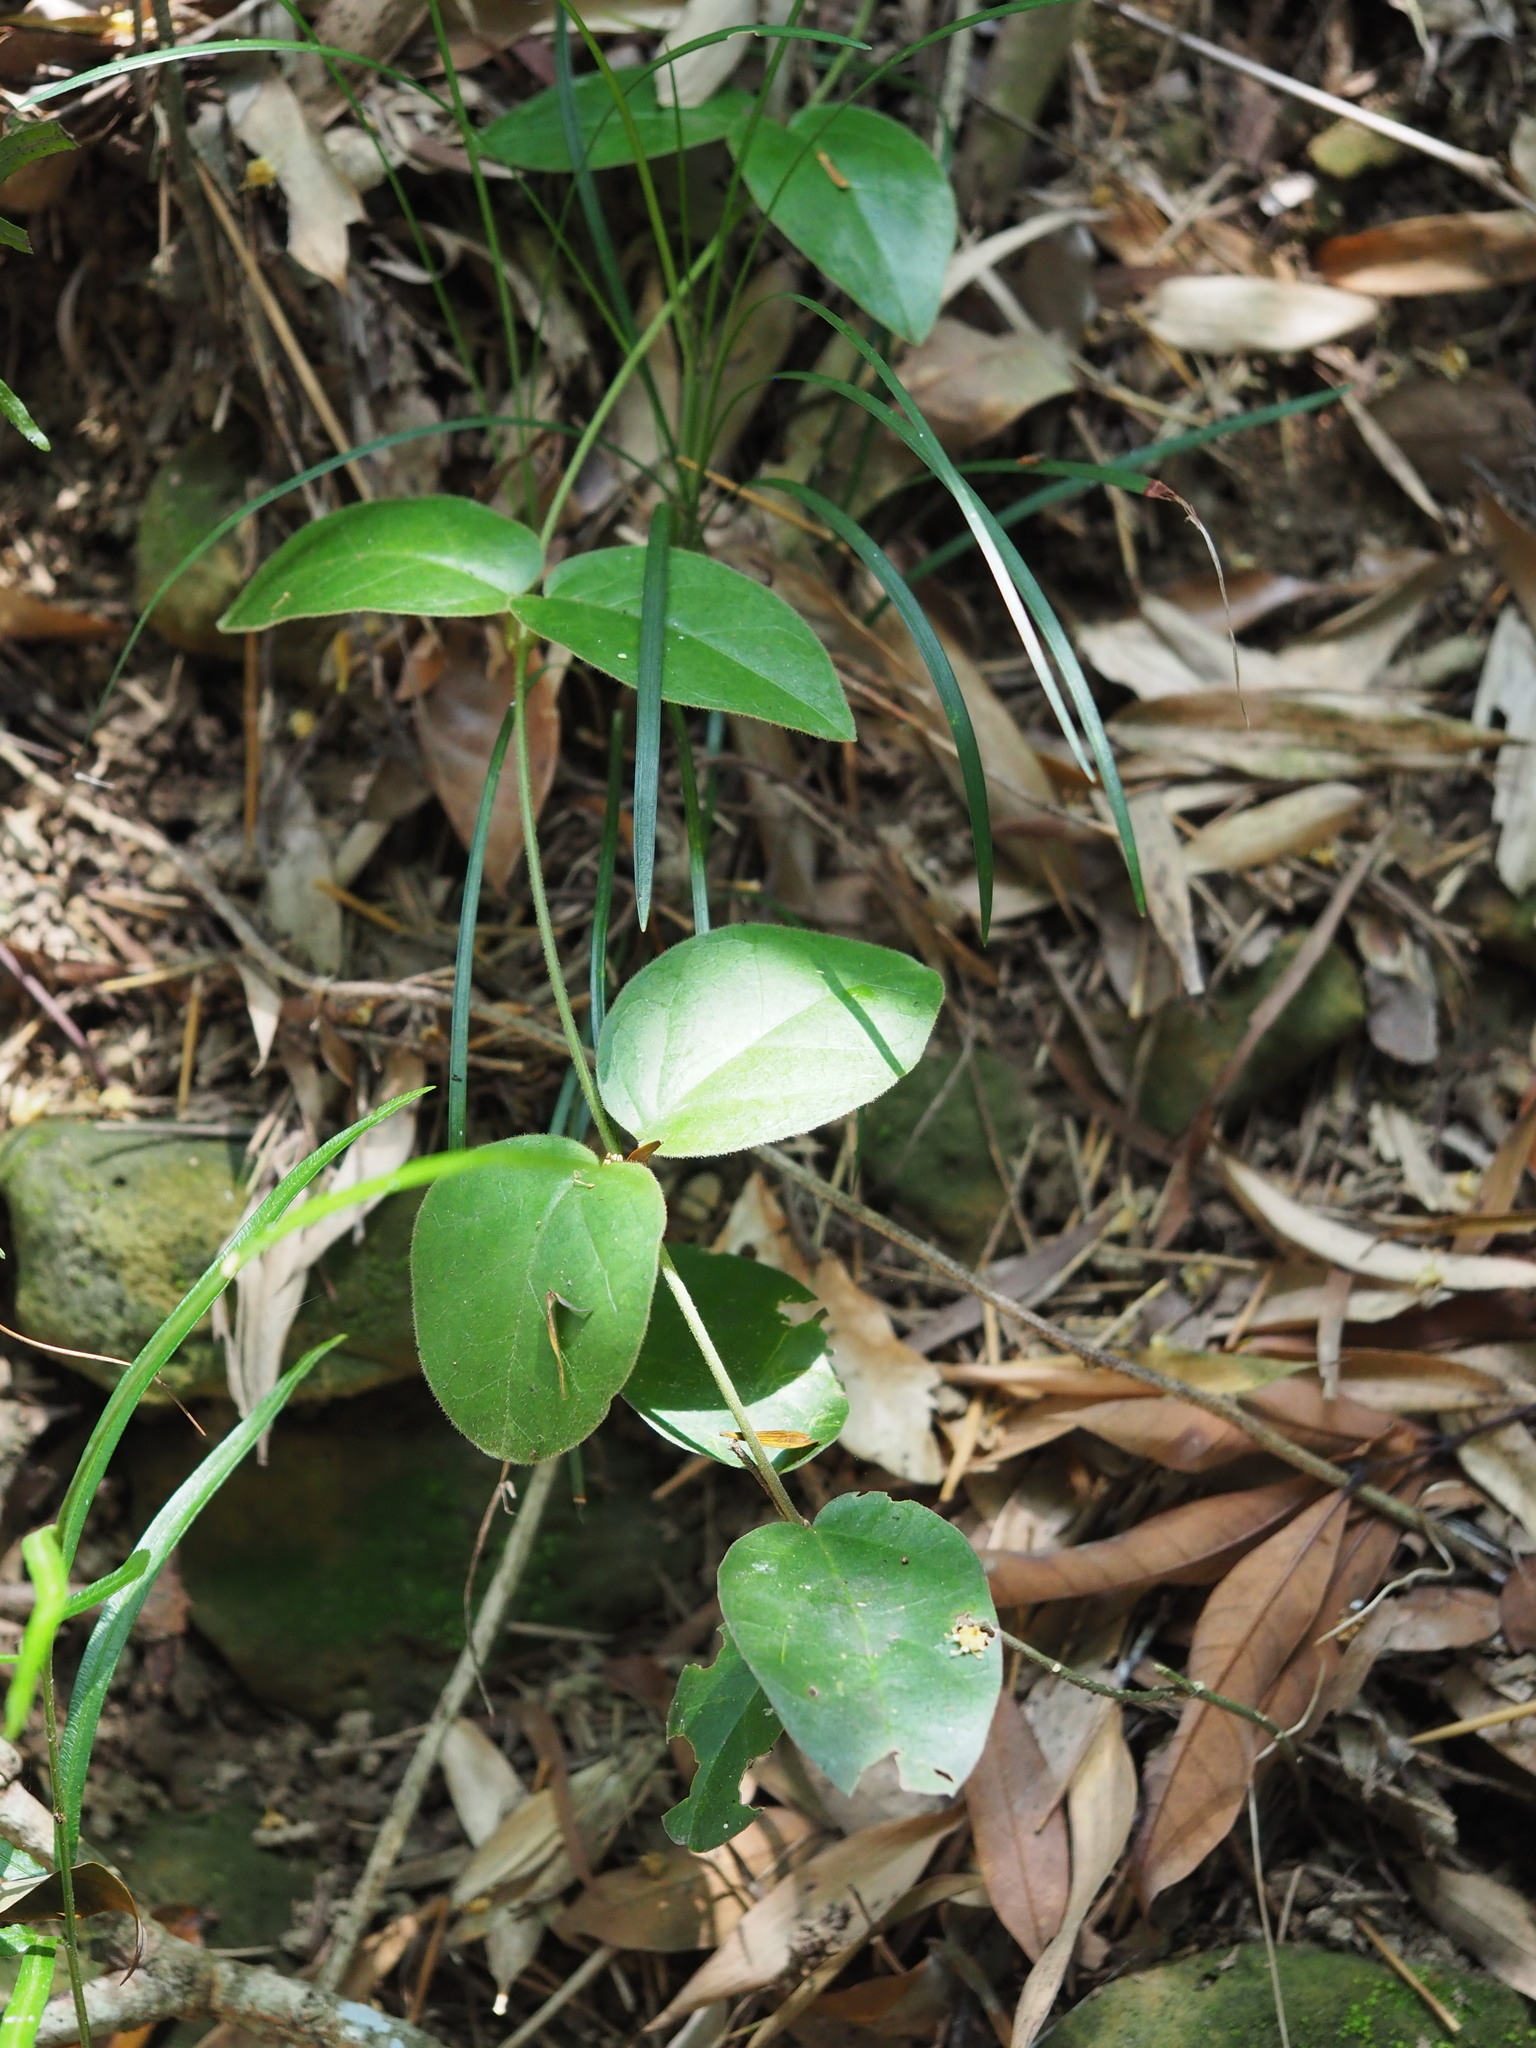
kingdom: Plantae
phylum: Tracheophyta
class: Magnoliopsida
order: Gentianales
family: Apocynaceae
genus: Vincetoxicum
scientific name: Vincetoxicum hirsutum
